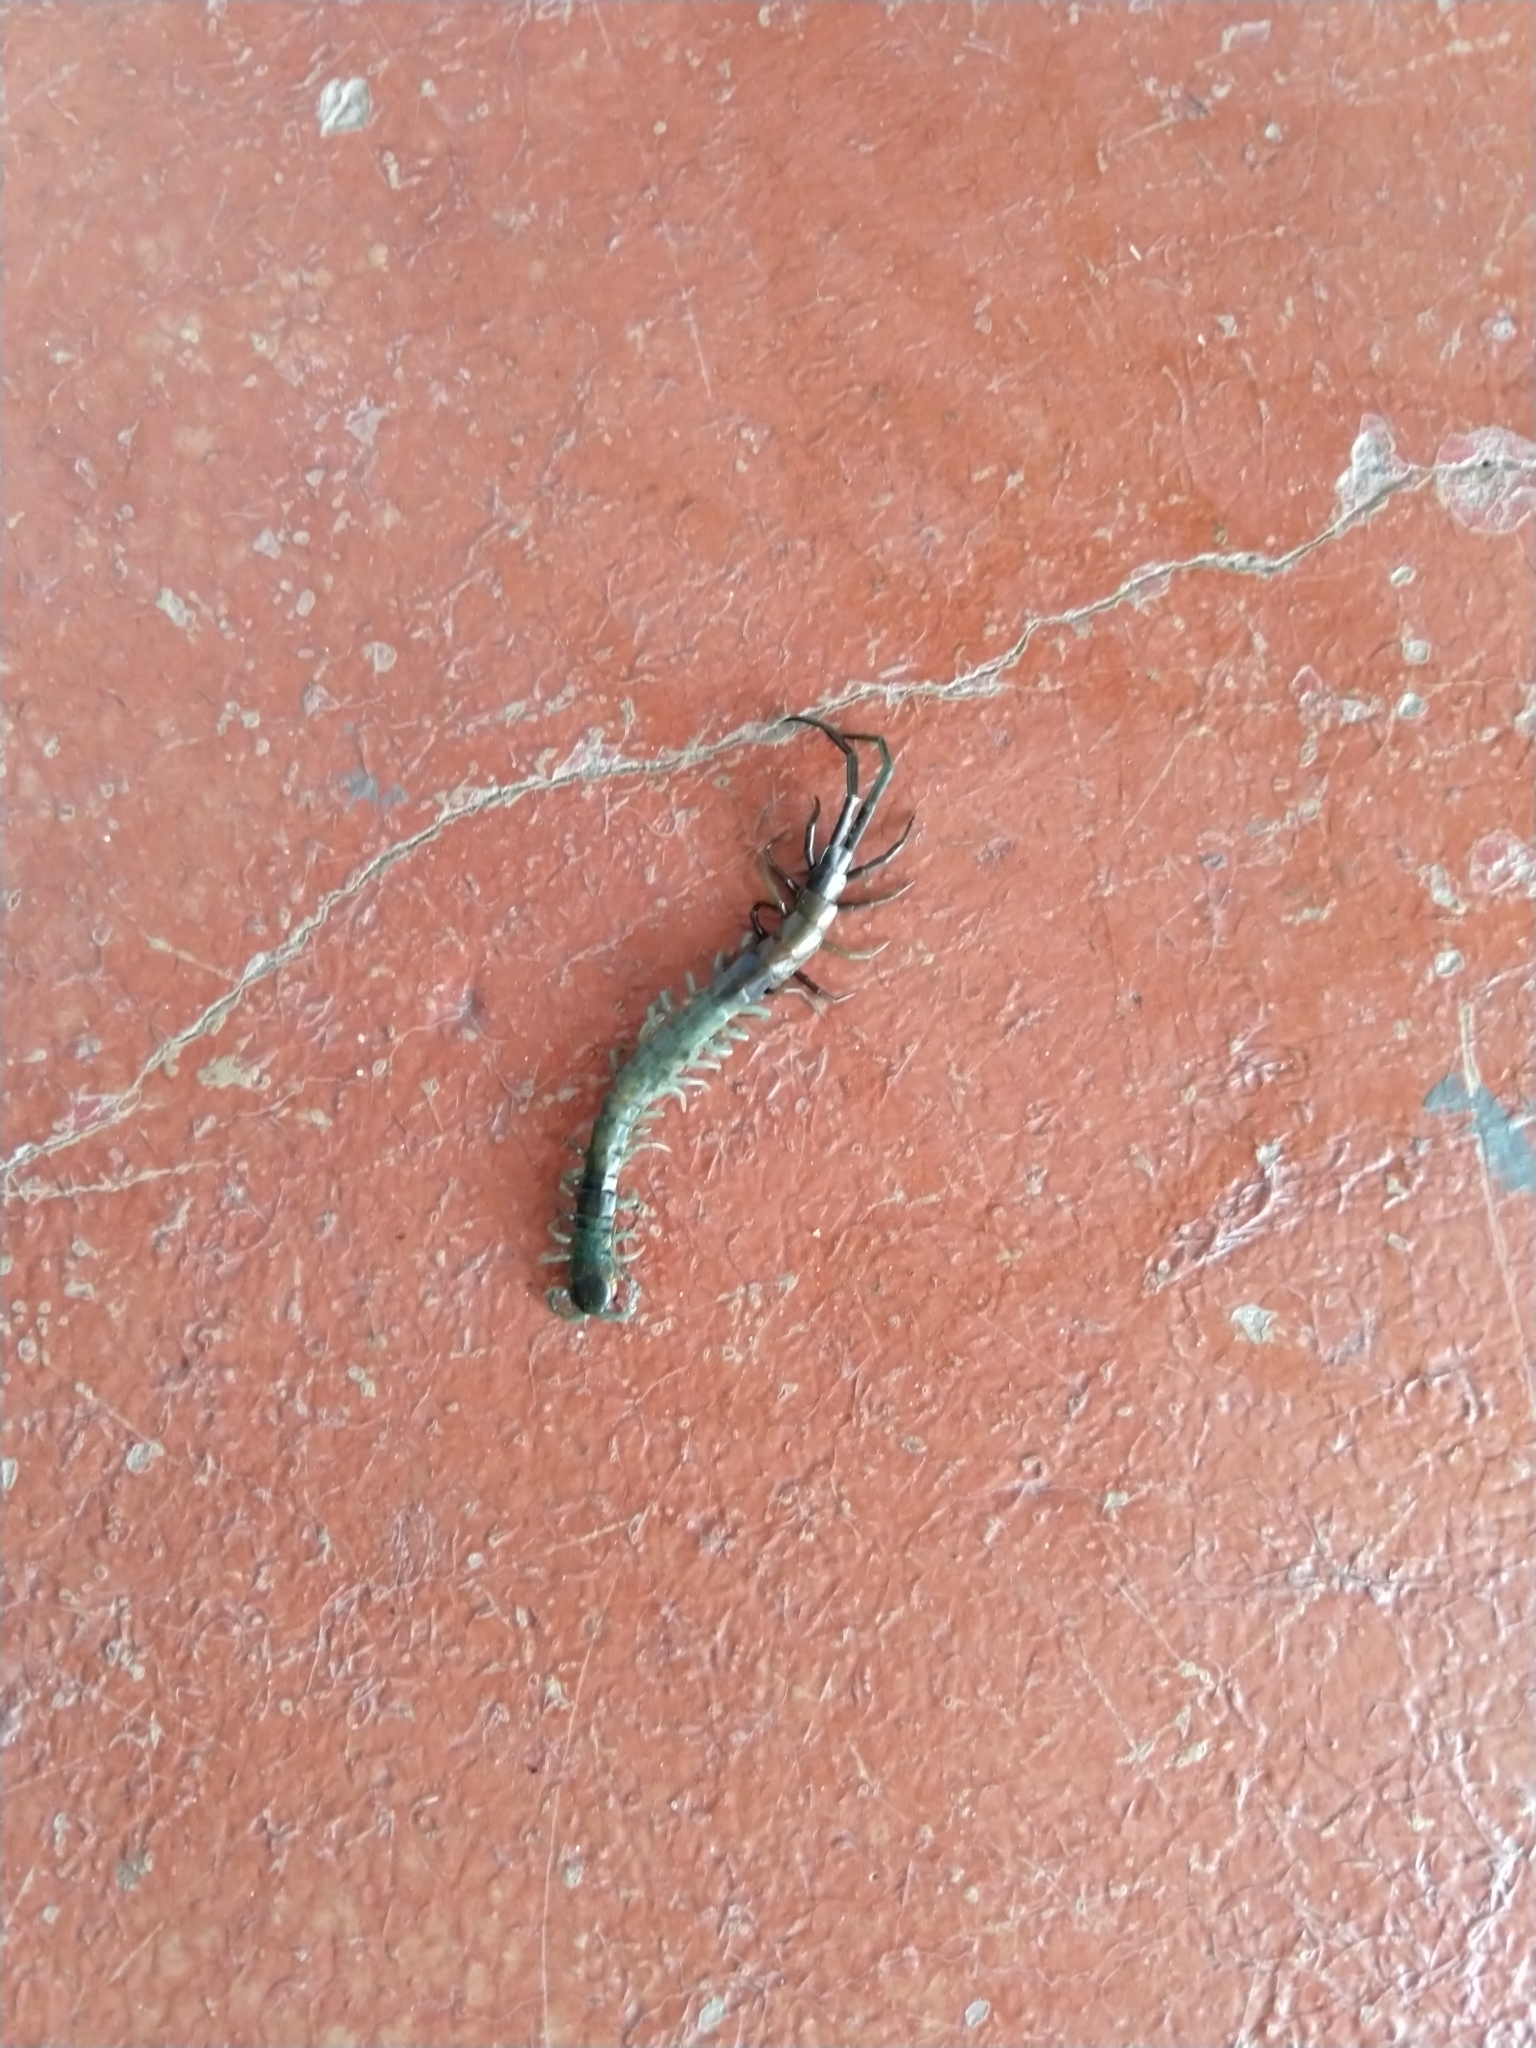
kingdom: Animalia
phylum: Arthropoda
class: Chilopoda
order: Scolopendromorpha
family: Scolopendridae
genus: Scolopendra
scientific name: Scolopendra aztecorum
